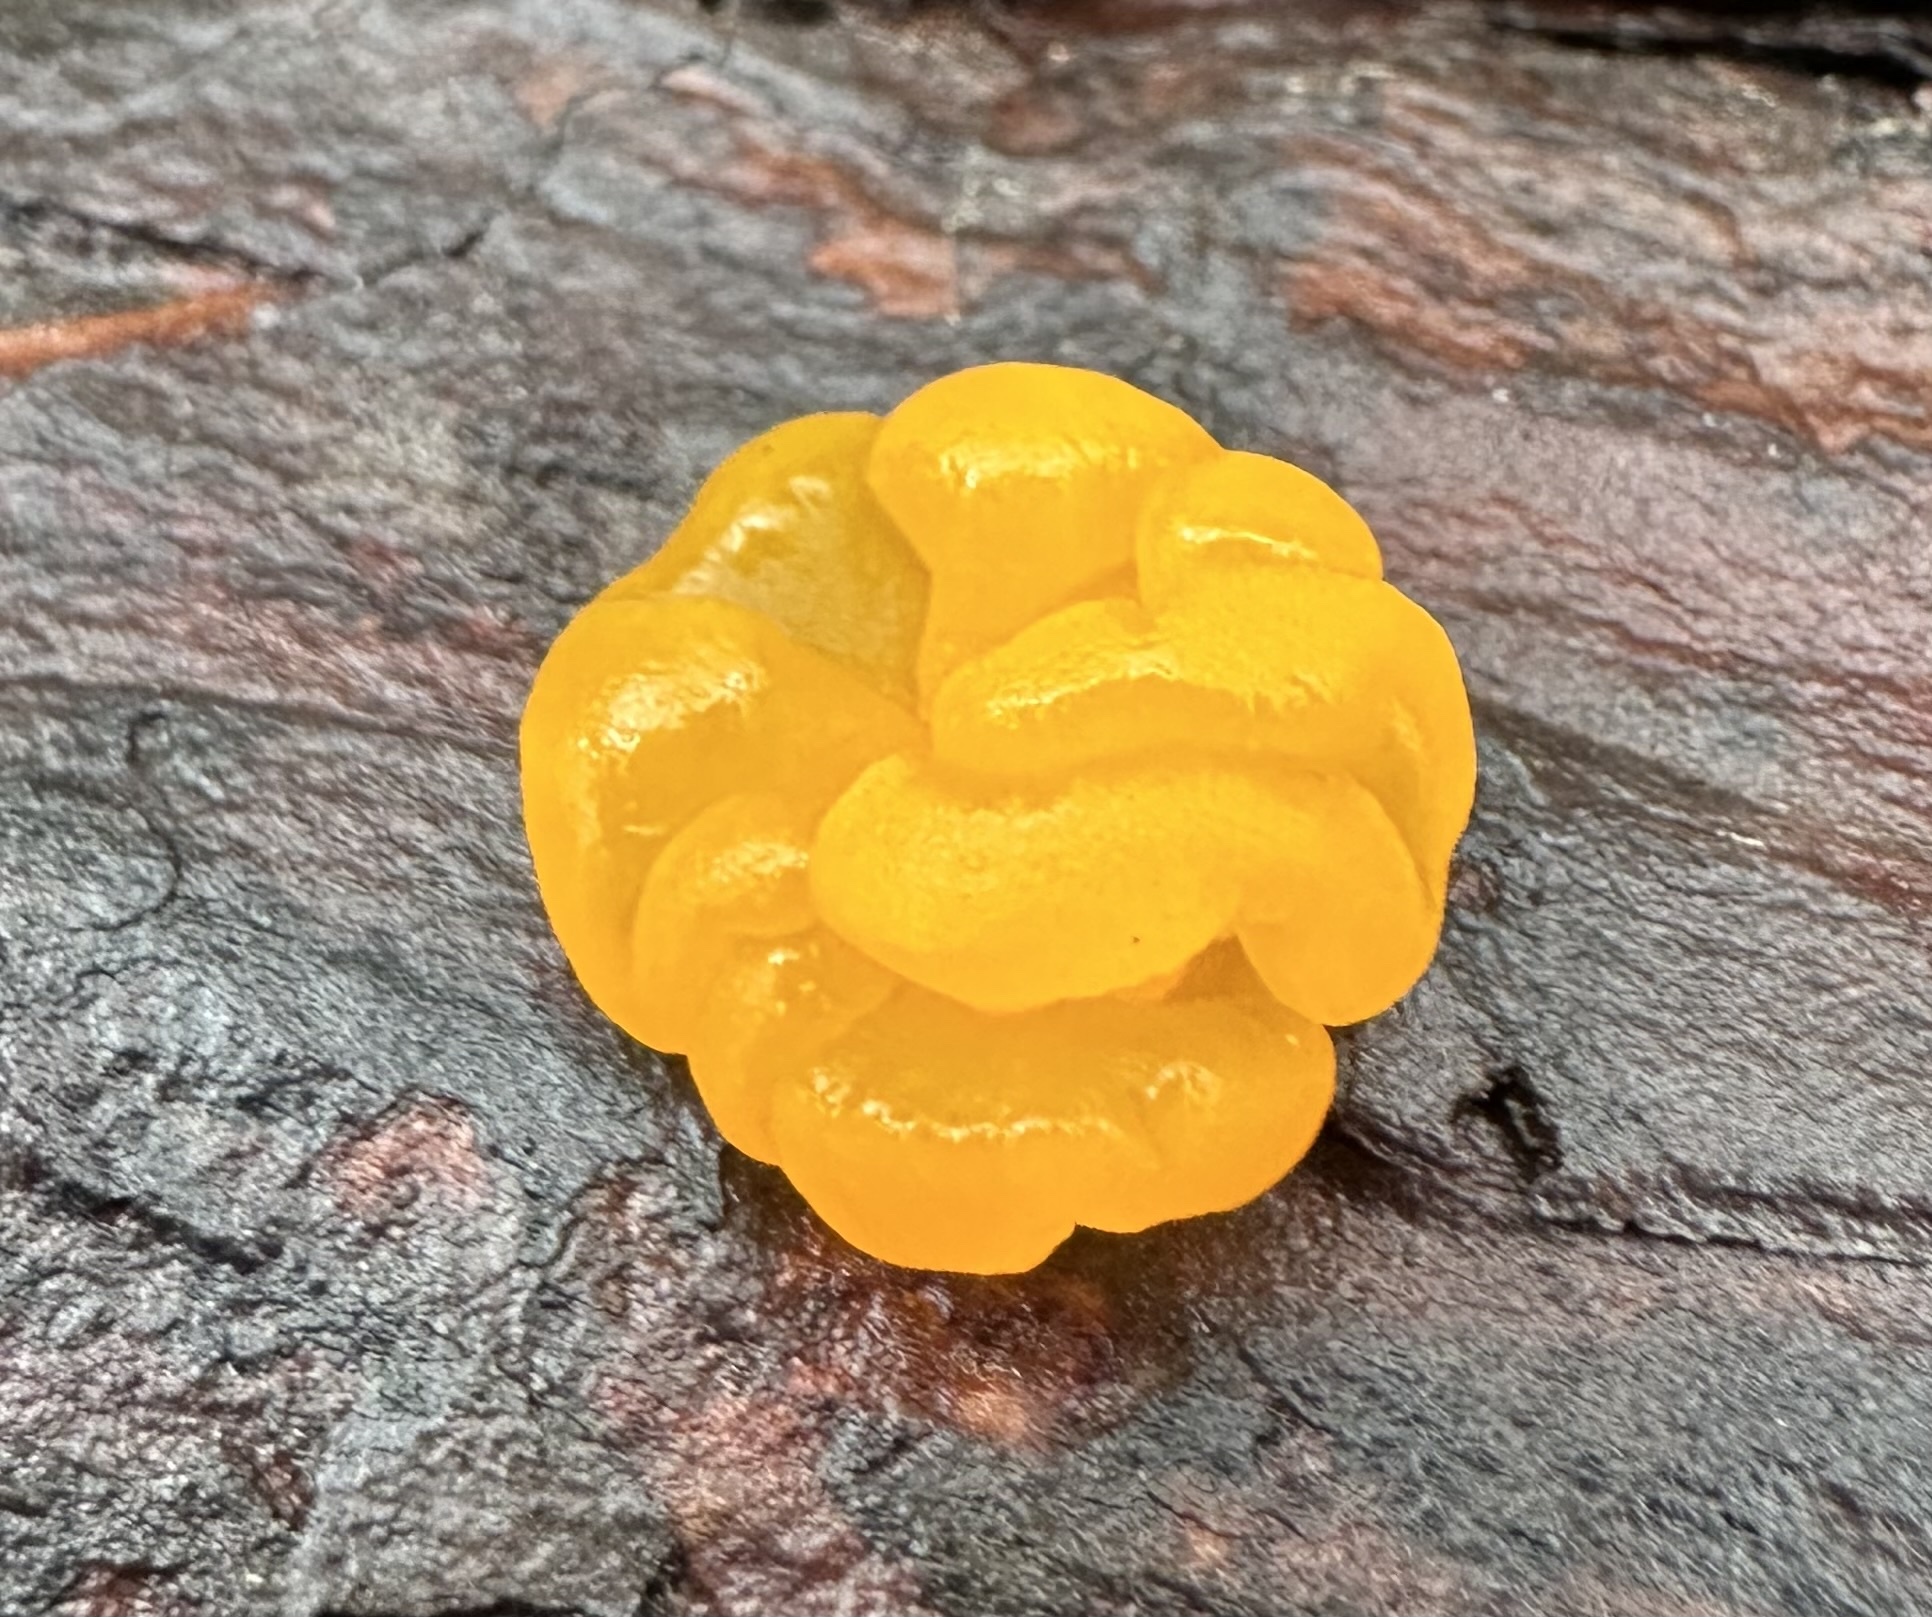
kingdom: Fungi
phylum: Basidiomycota
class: Dacrymycetes
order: Dacrymycetales
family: Dacrymycetaceae
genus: Dacrymyces
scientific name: Dacrymyces chrysospermus
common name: Orange jelly spot
